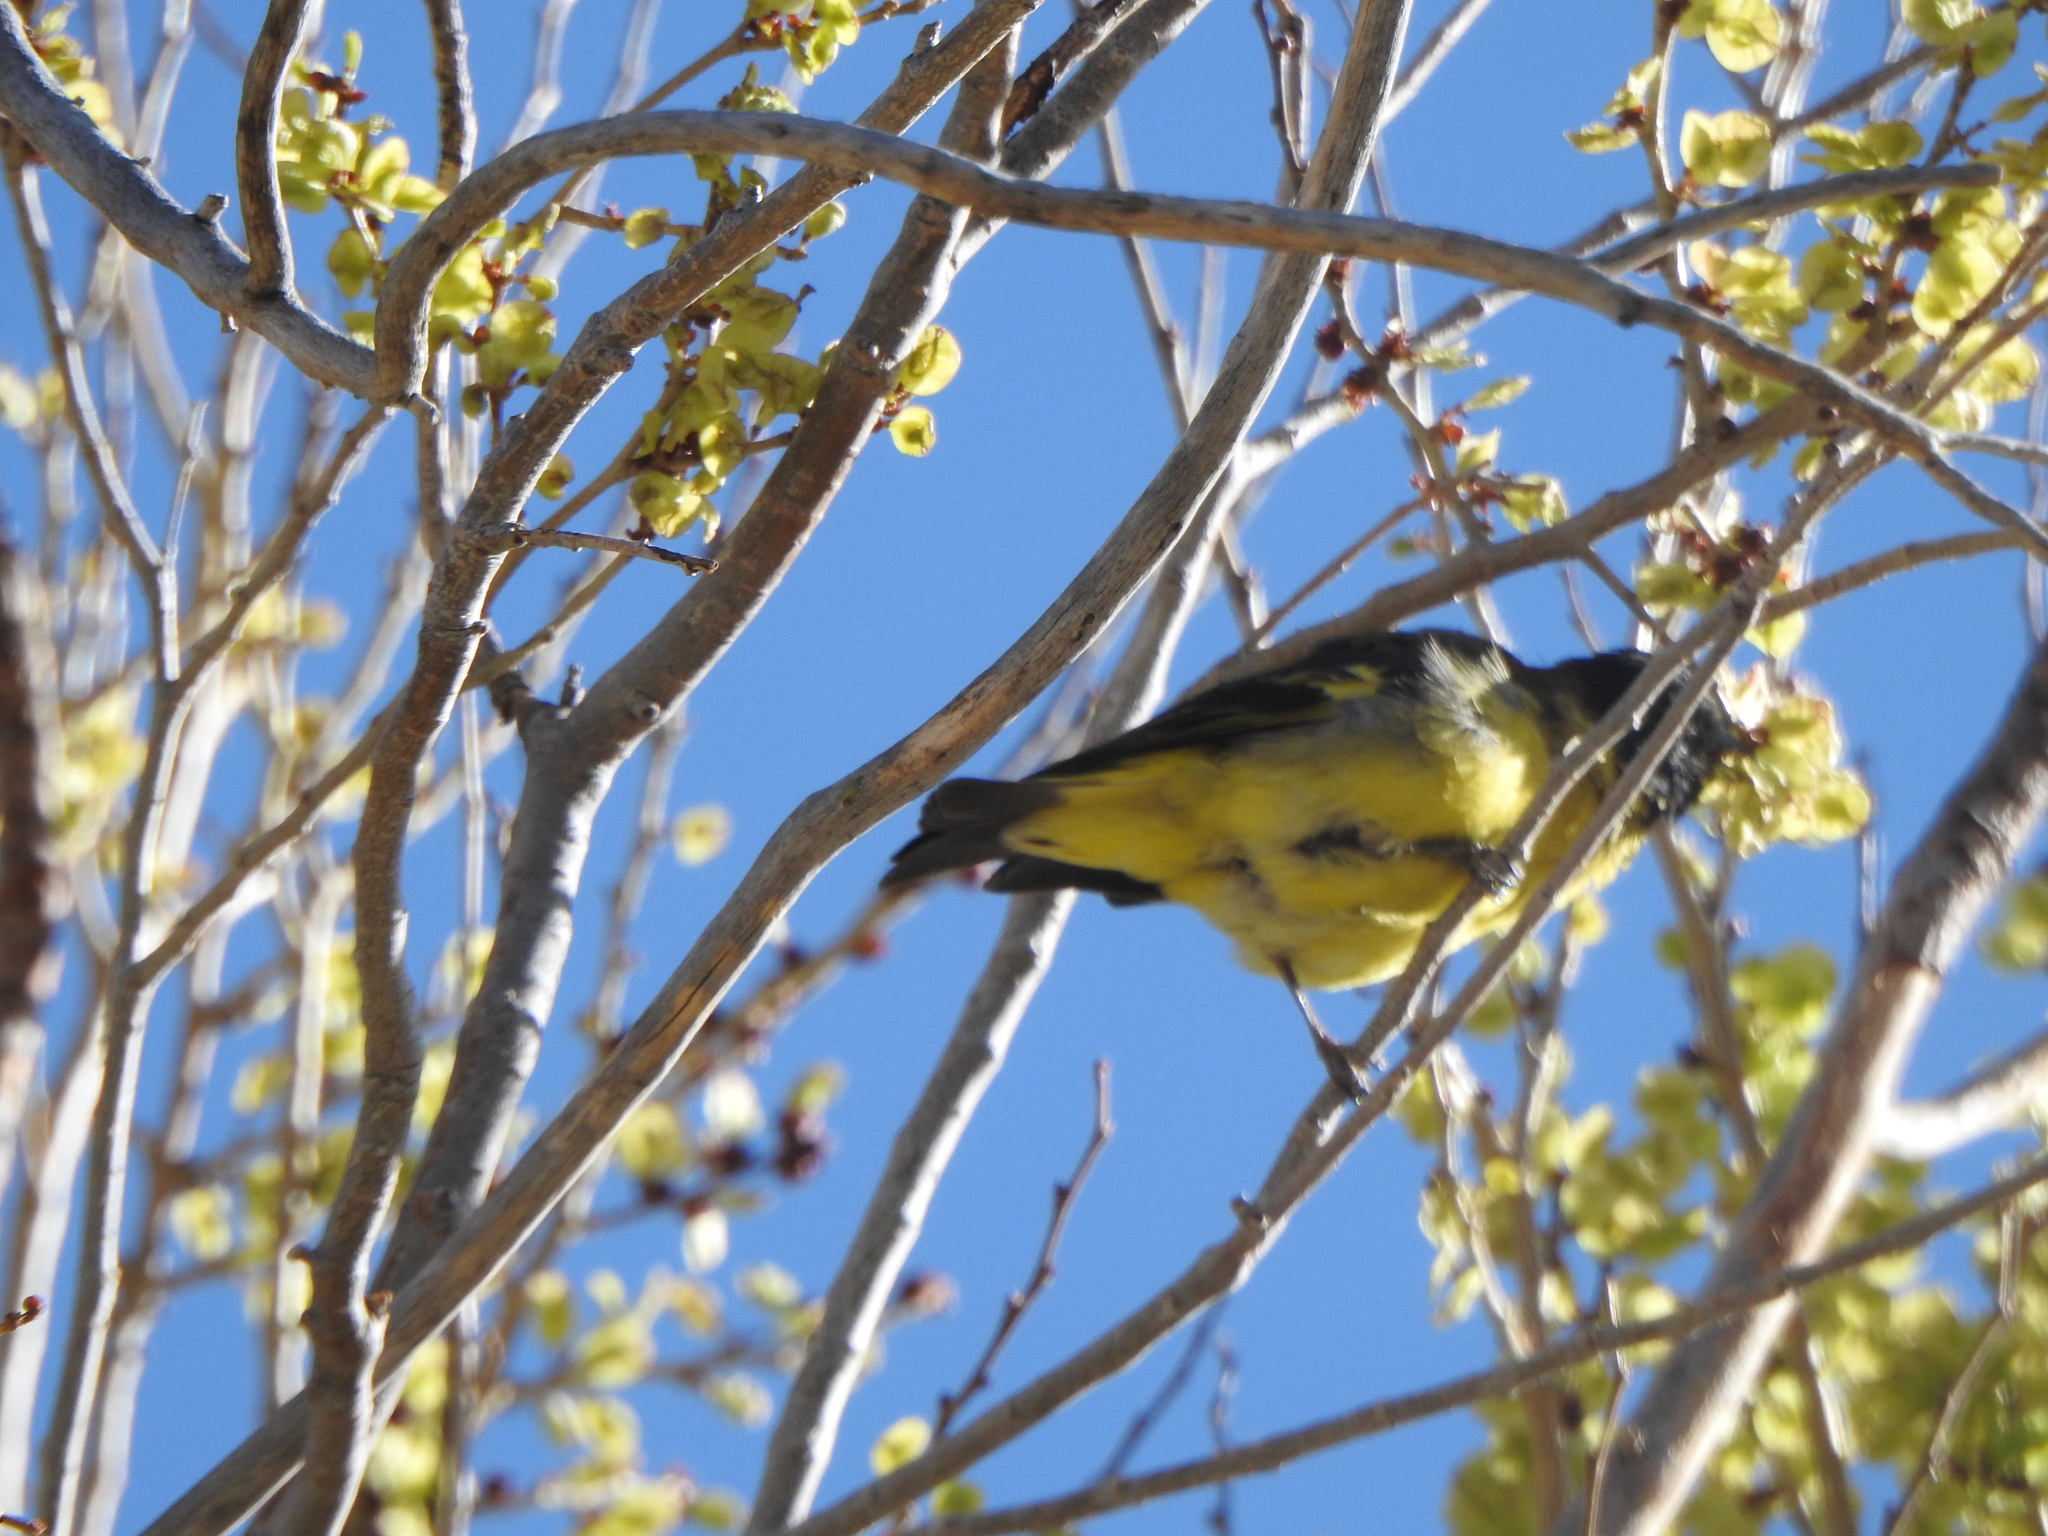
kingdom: Animalia
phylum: Chordata
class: Aves
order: Passeriformes
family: Fringillidae
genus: Spinus
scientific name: Spinus magellanicus
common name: Hooded siskin
